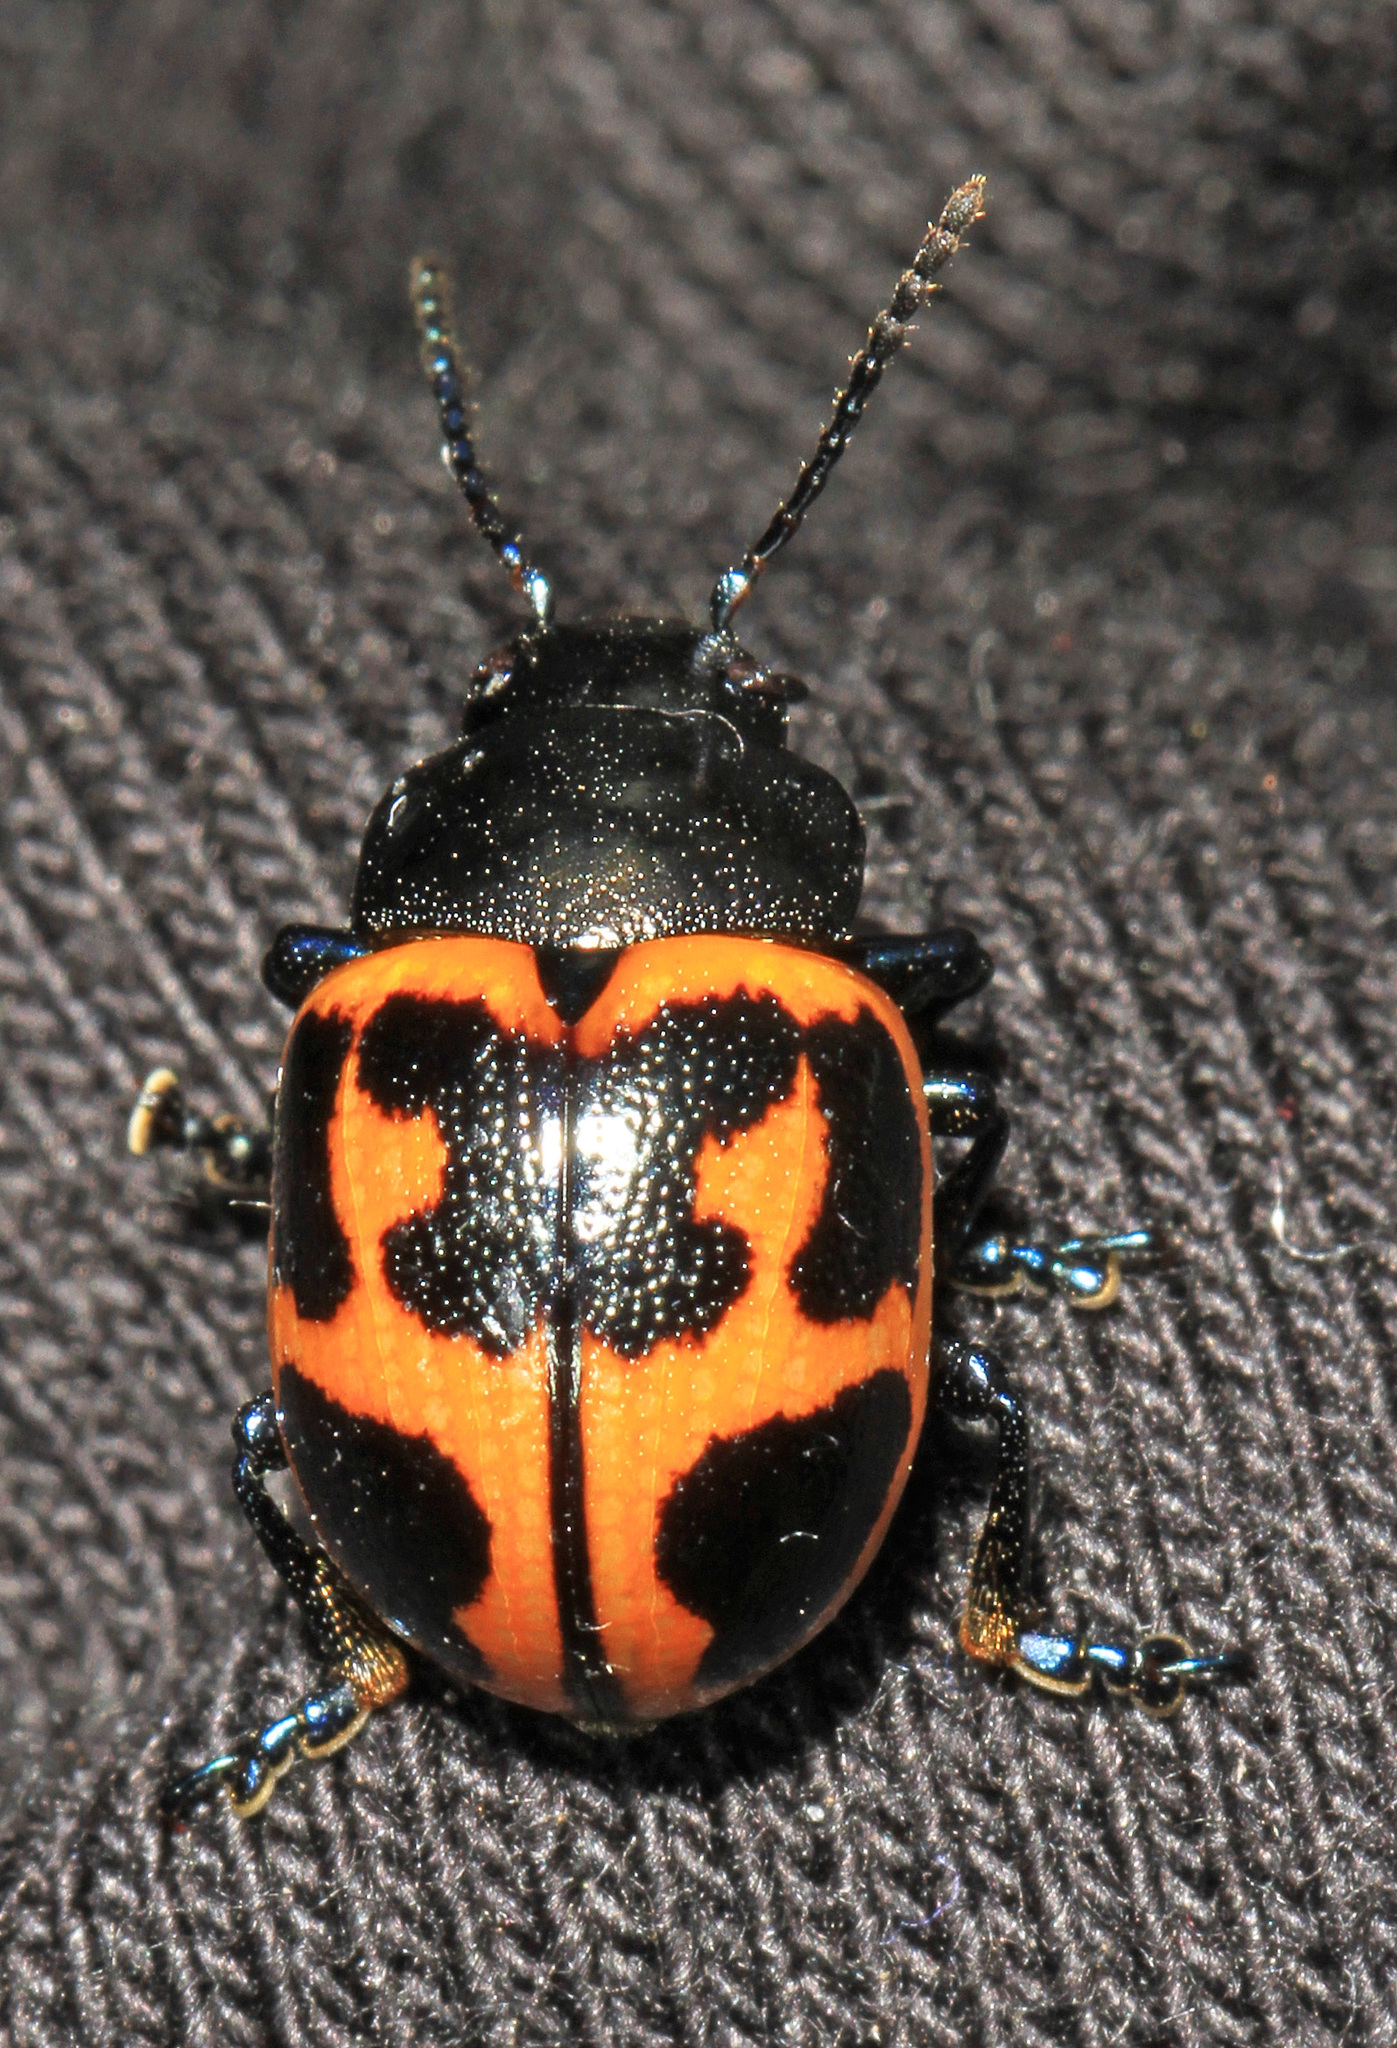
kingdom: Animalia
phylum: Arthropoda
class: Insecta
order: Coleoptera
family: Chrysomelidae
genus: Labidomera
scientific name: Labidomera clivicollis
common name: Swamp milkweed leaf beetle
